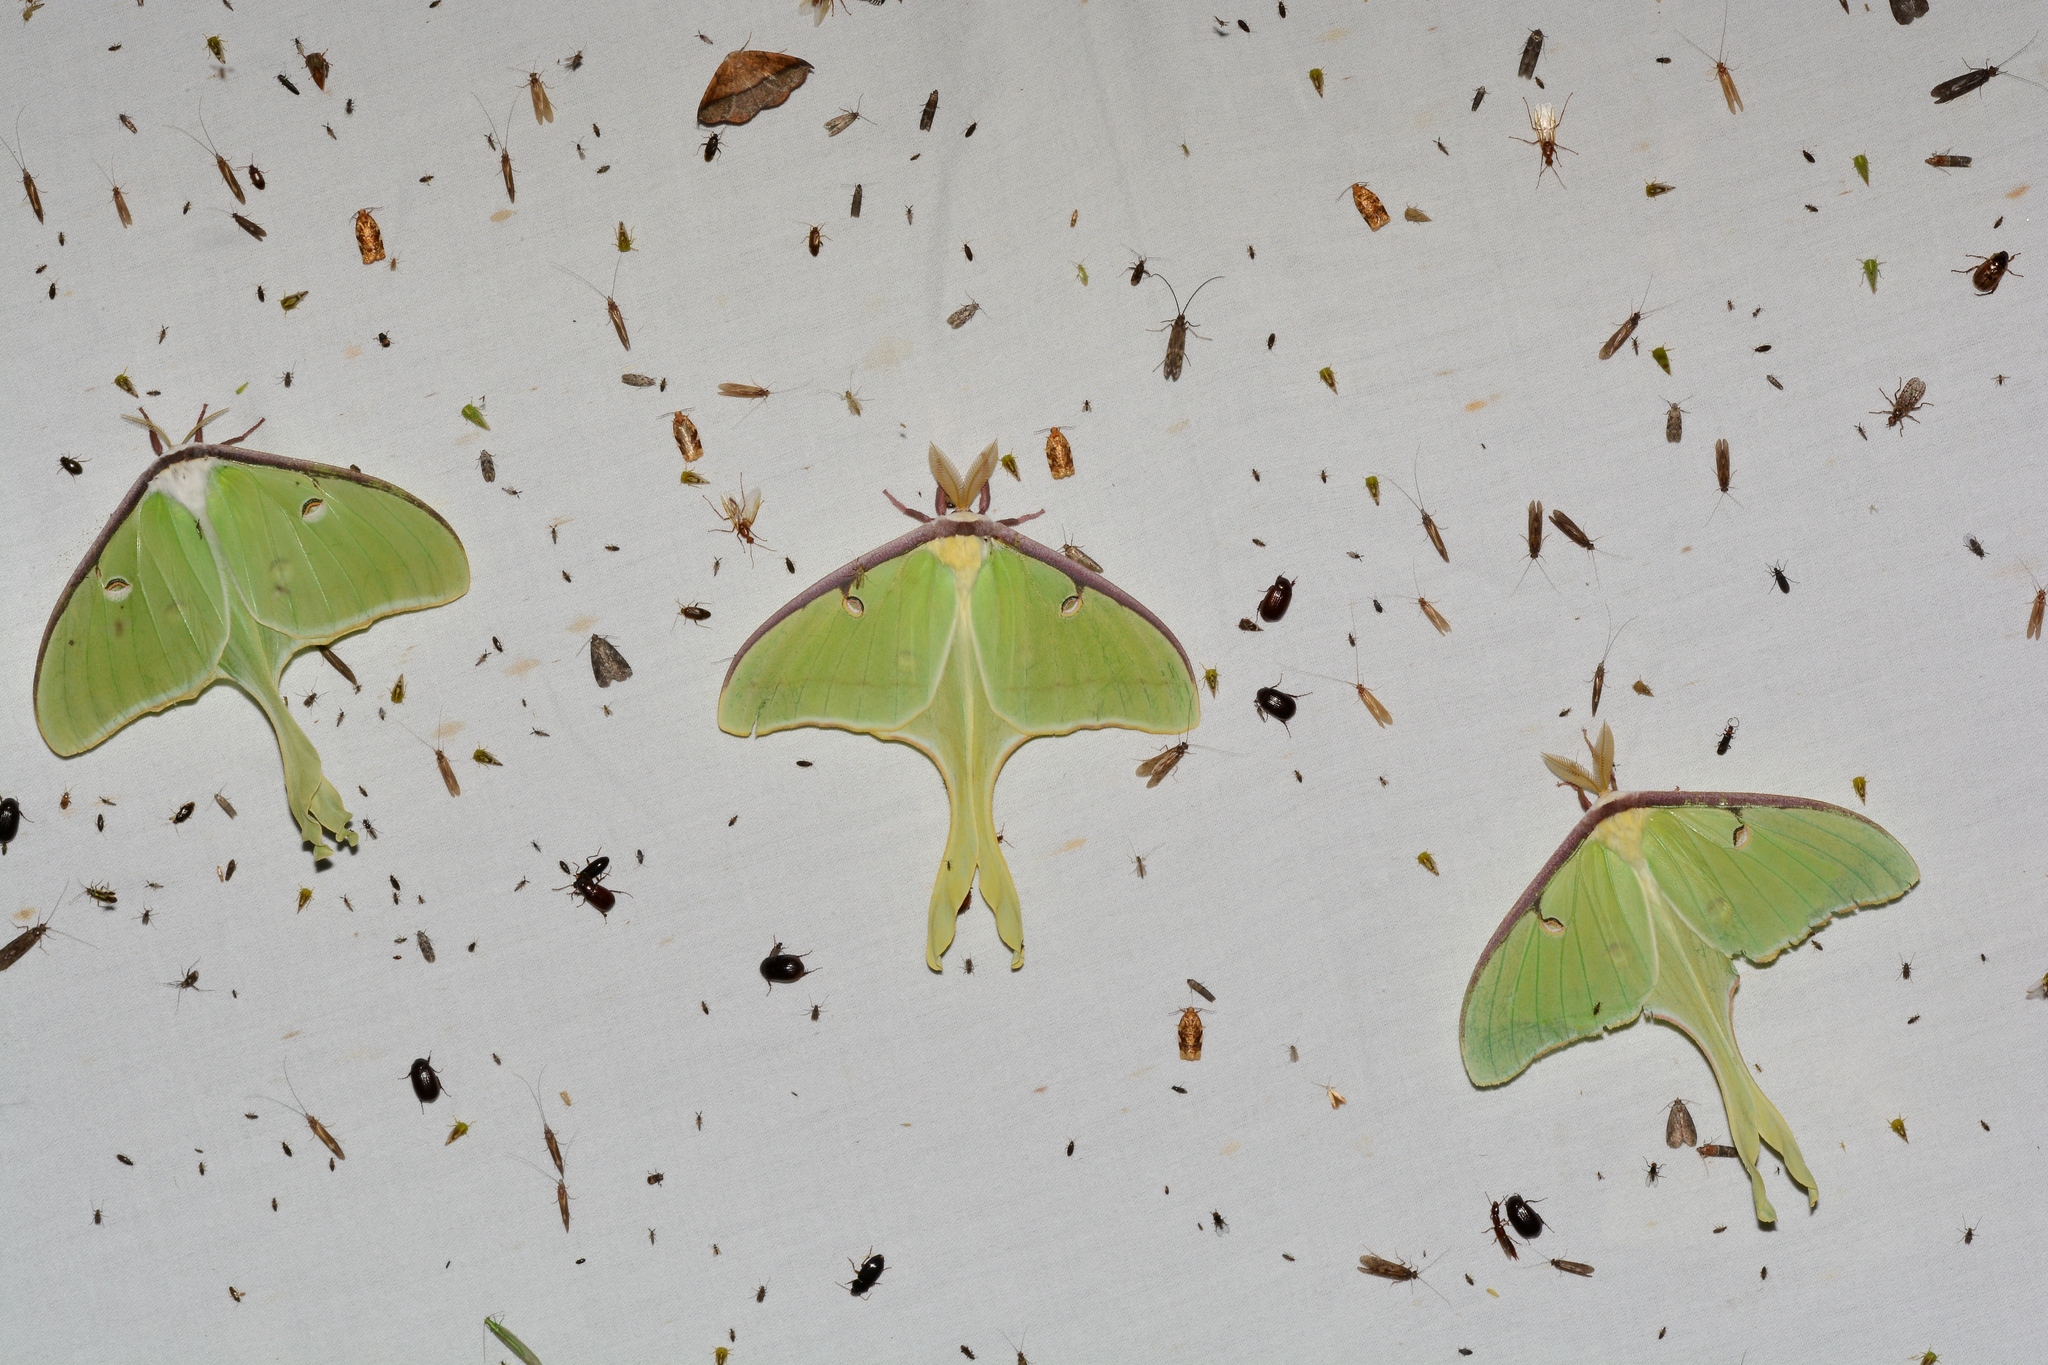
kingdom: Animalia
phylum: Arthropoda
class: Insecta
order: Lepidoptera
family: Saturniidae
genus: Actias
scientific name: Actias luna
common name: Luna moth
